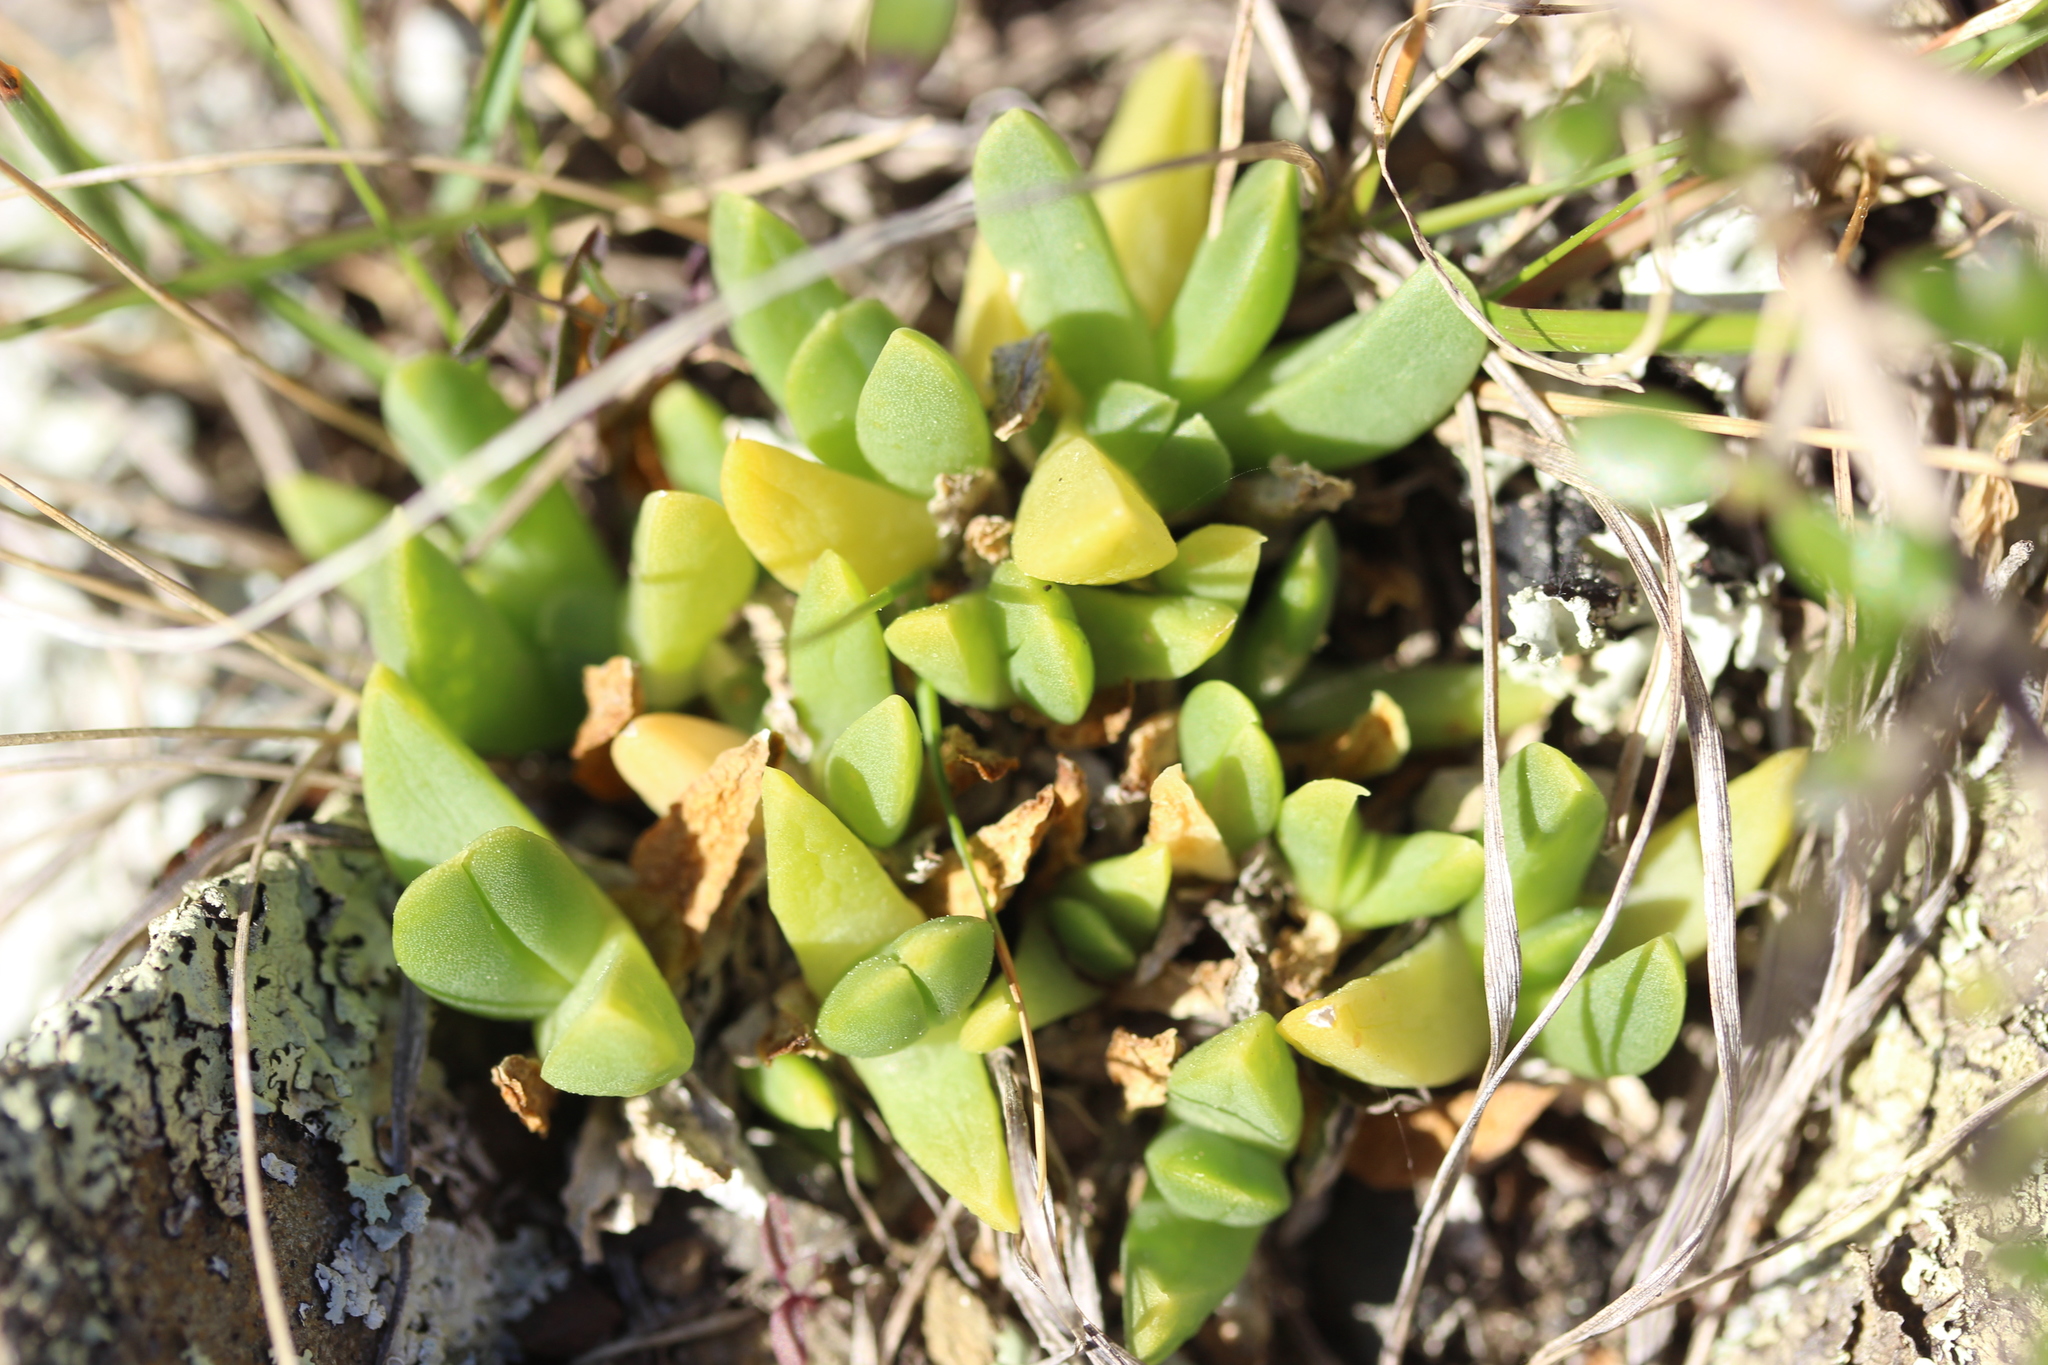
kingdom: Plantae
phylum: Tracheophyta
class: Magnoliopsida
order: Caryophyllales
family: Aizoaceae
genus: Disphyma
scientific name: Disphyma australe
